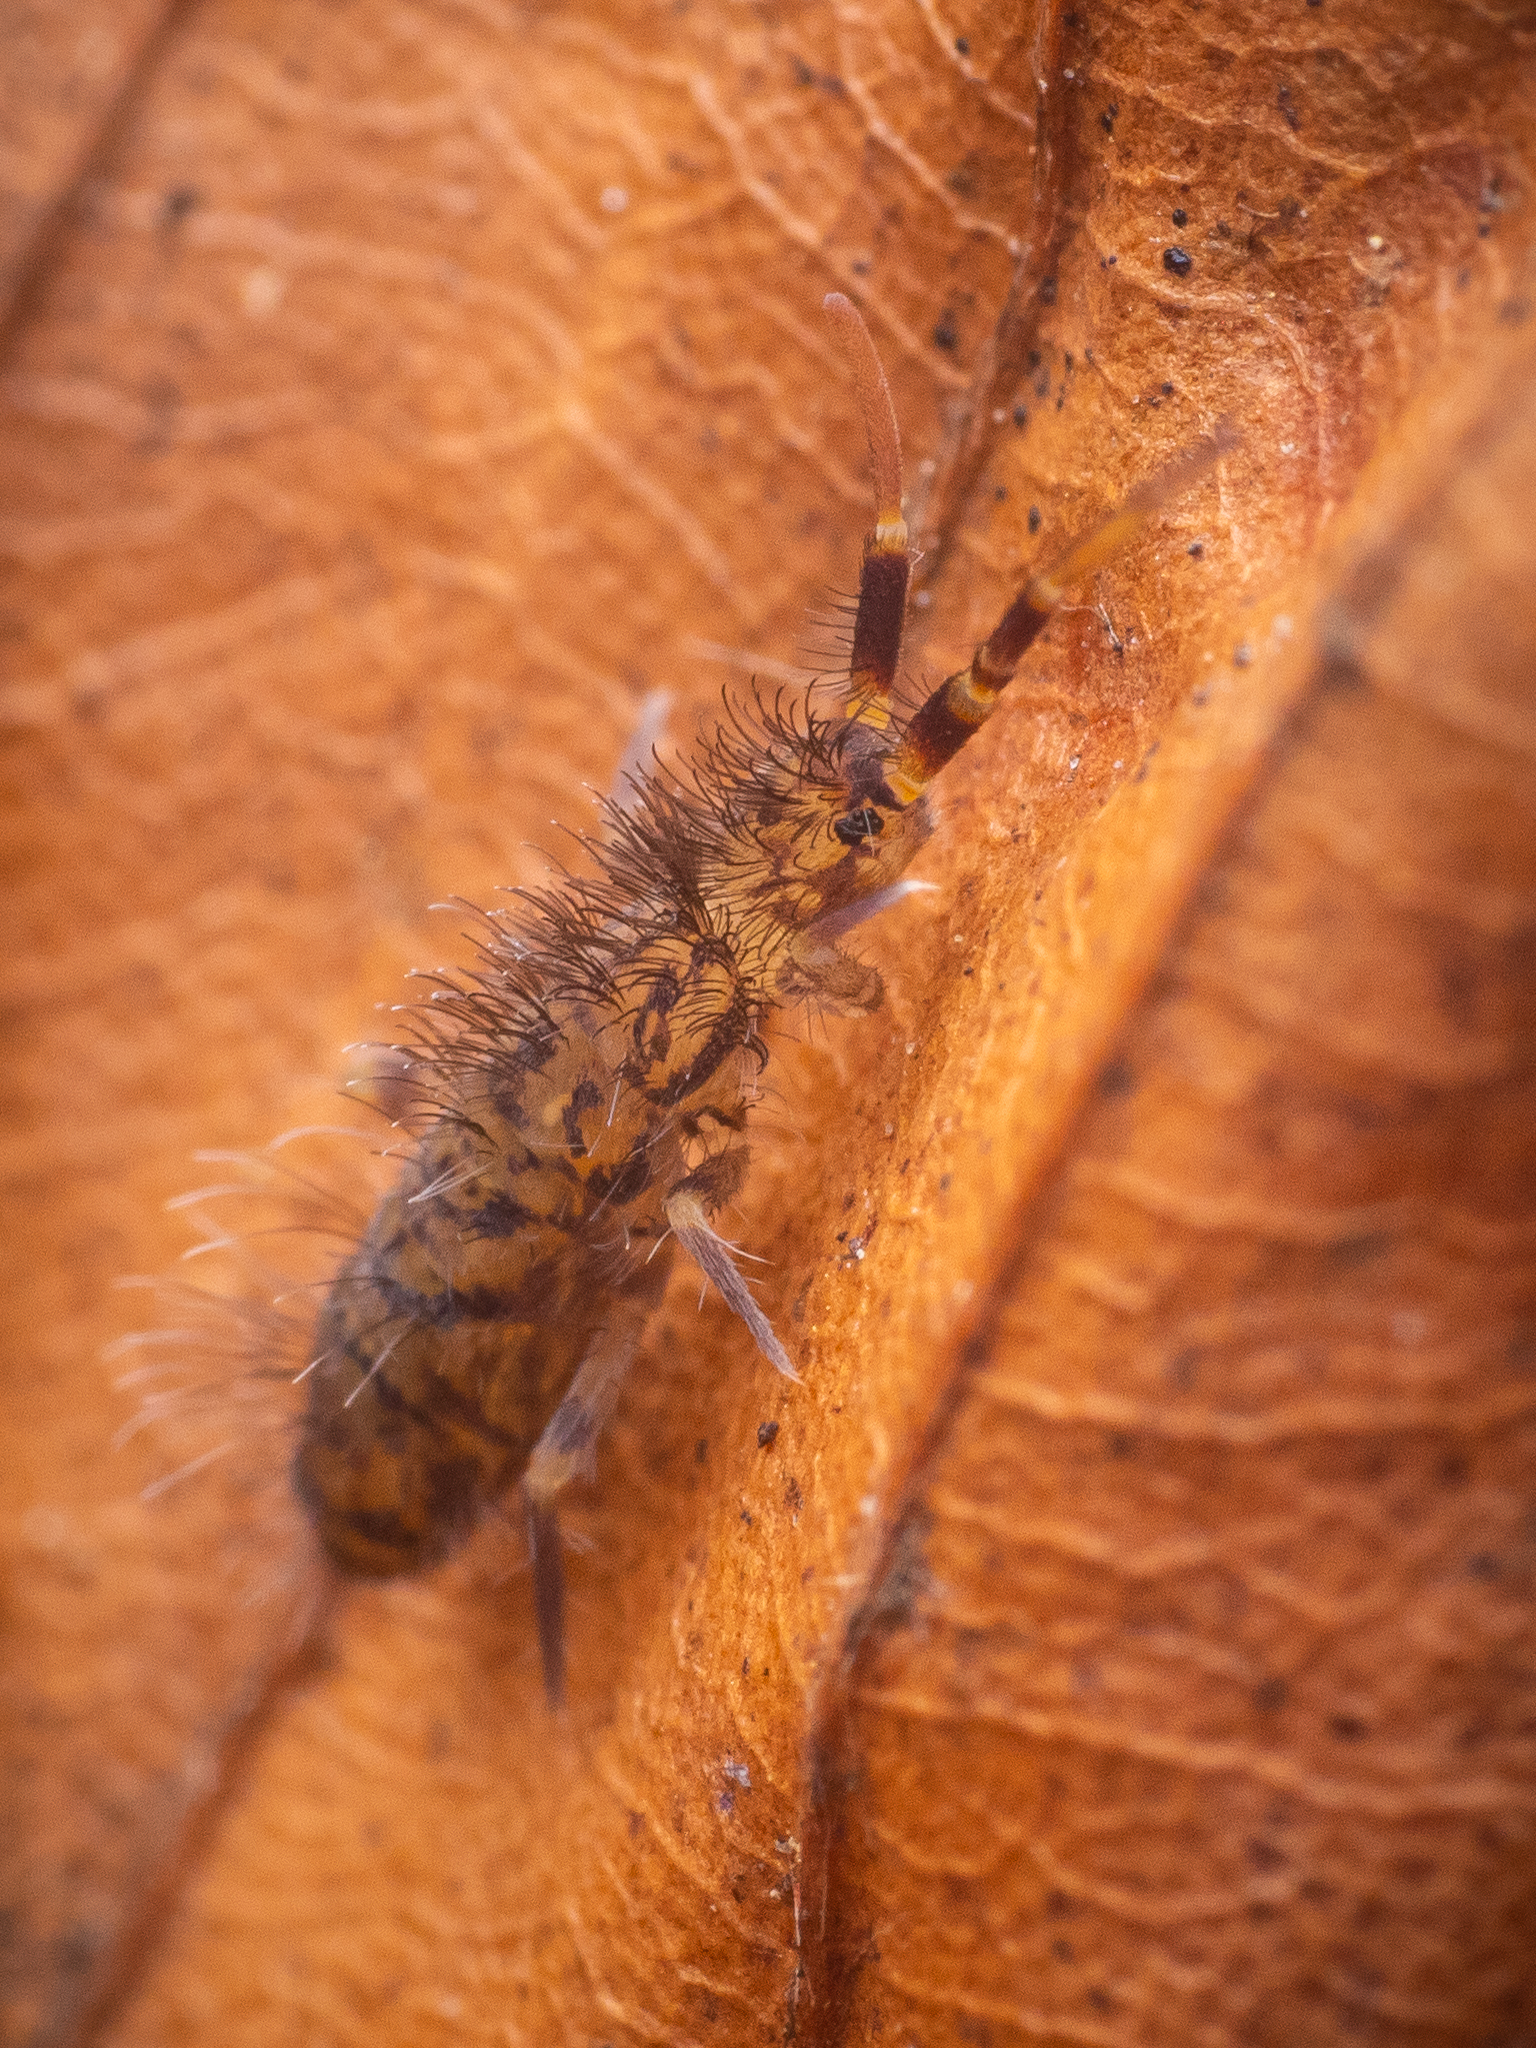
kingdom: Animalia
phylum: Arthropoda
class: Collembola
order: Entomobryomorpha
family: Orchesellidae
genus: Orchesella
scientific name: Orchesella villosa
